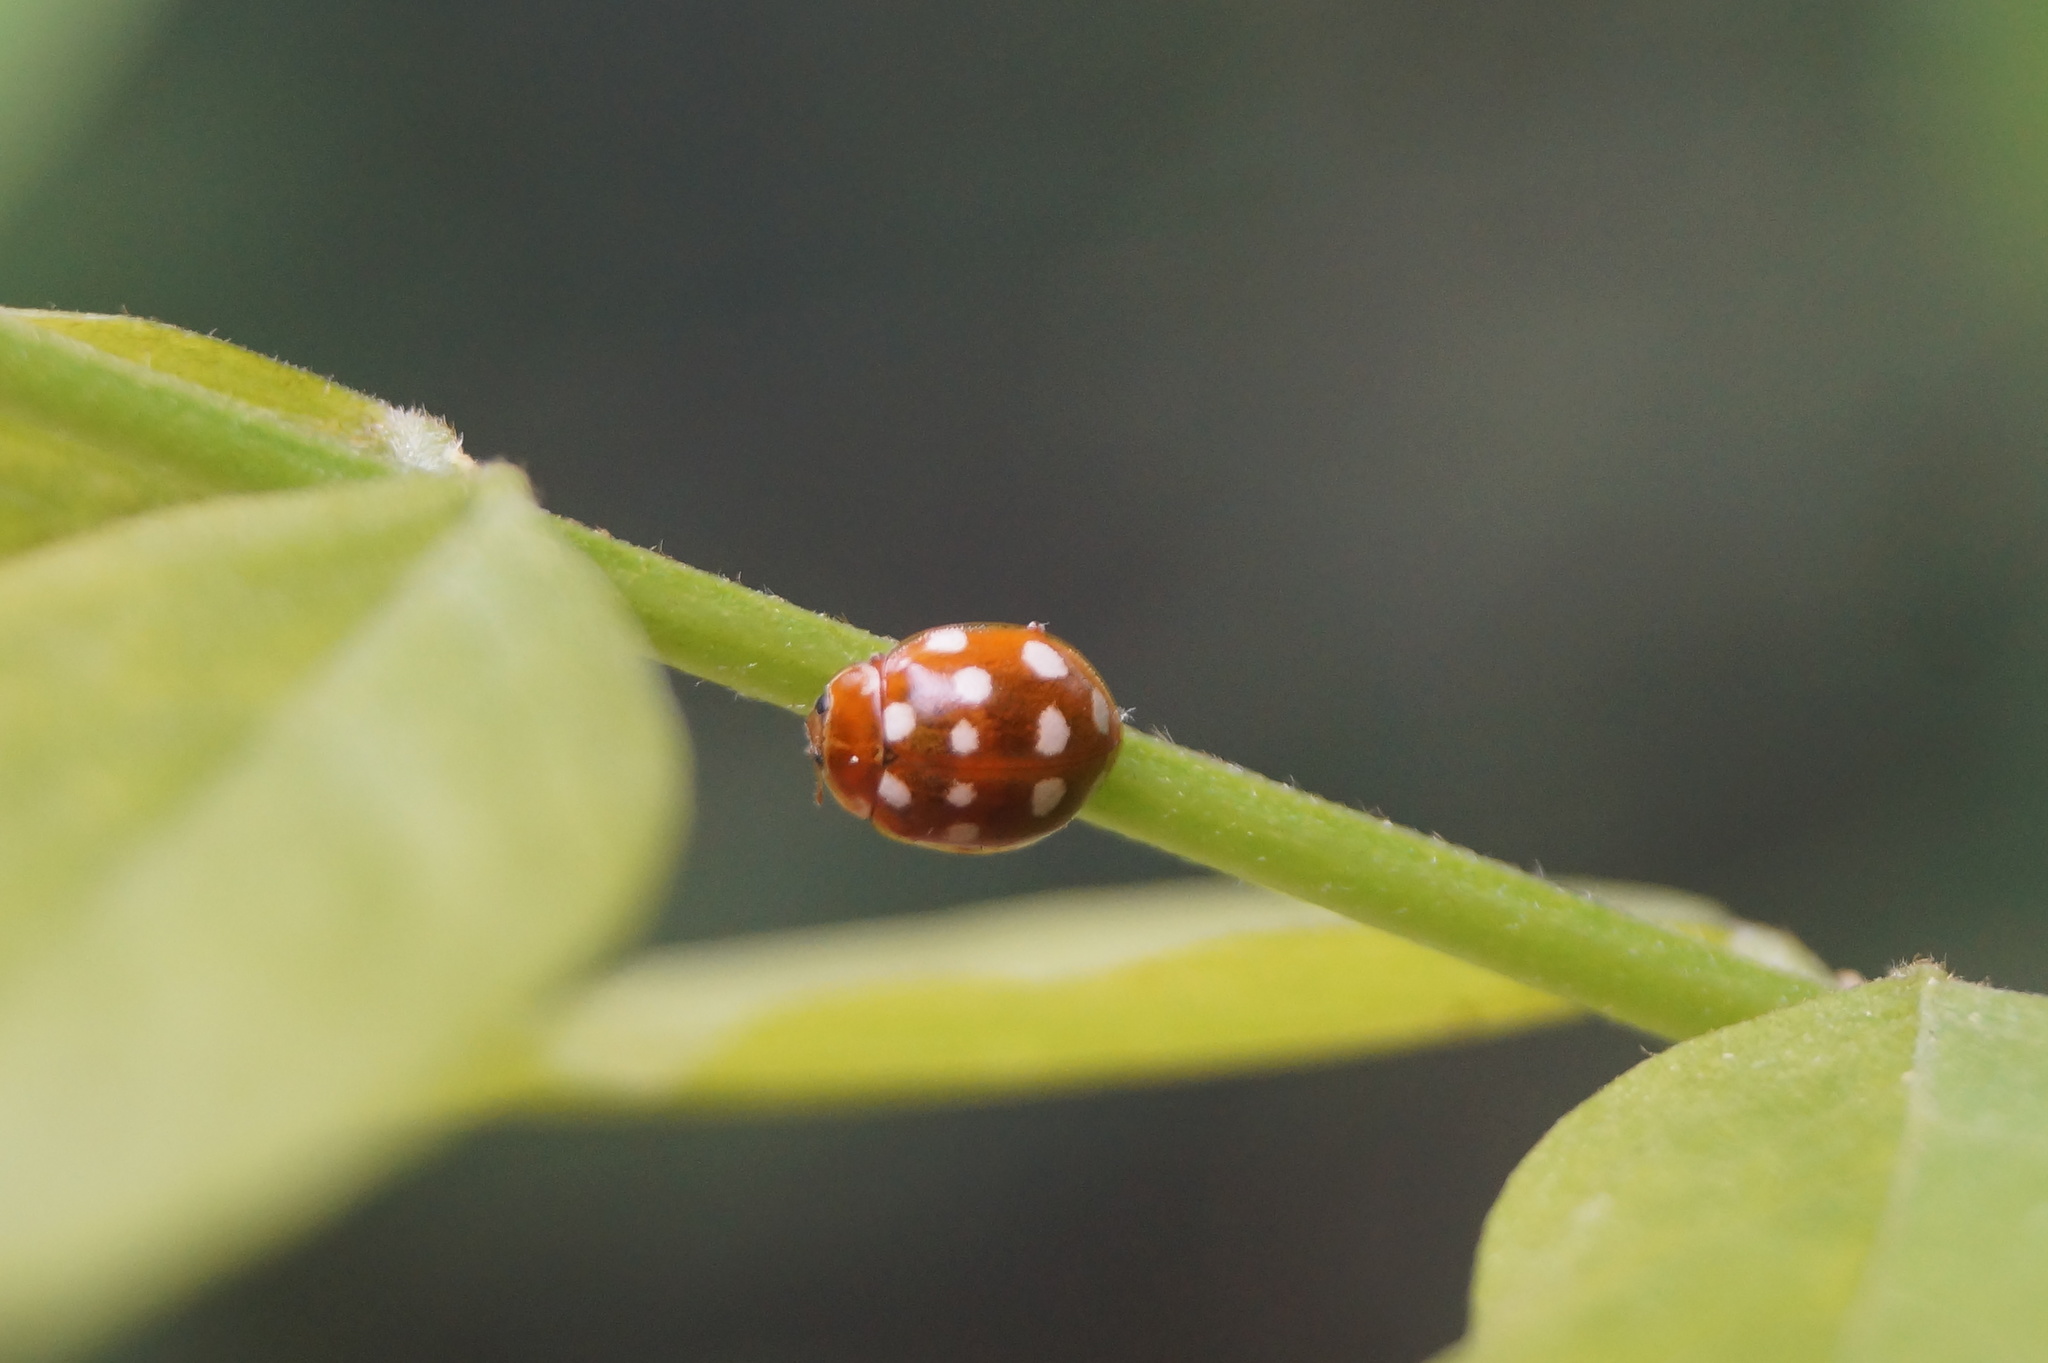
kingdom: Animalia
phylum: Arthropoda
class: Insecta
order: Coleoptera
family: Coccinellidae
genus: Calvia
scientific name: Calvia quatuordecimguttata
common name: Cream-spot ladybird
